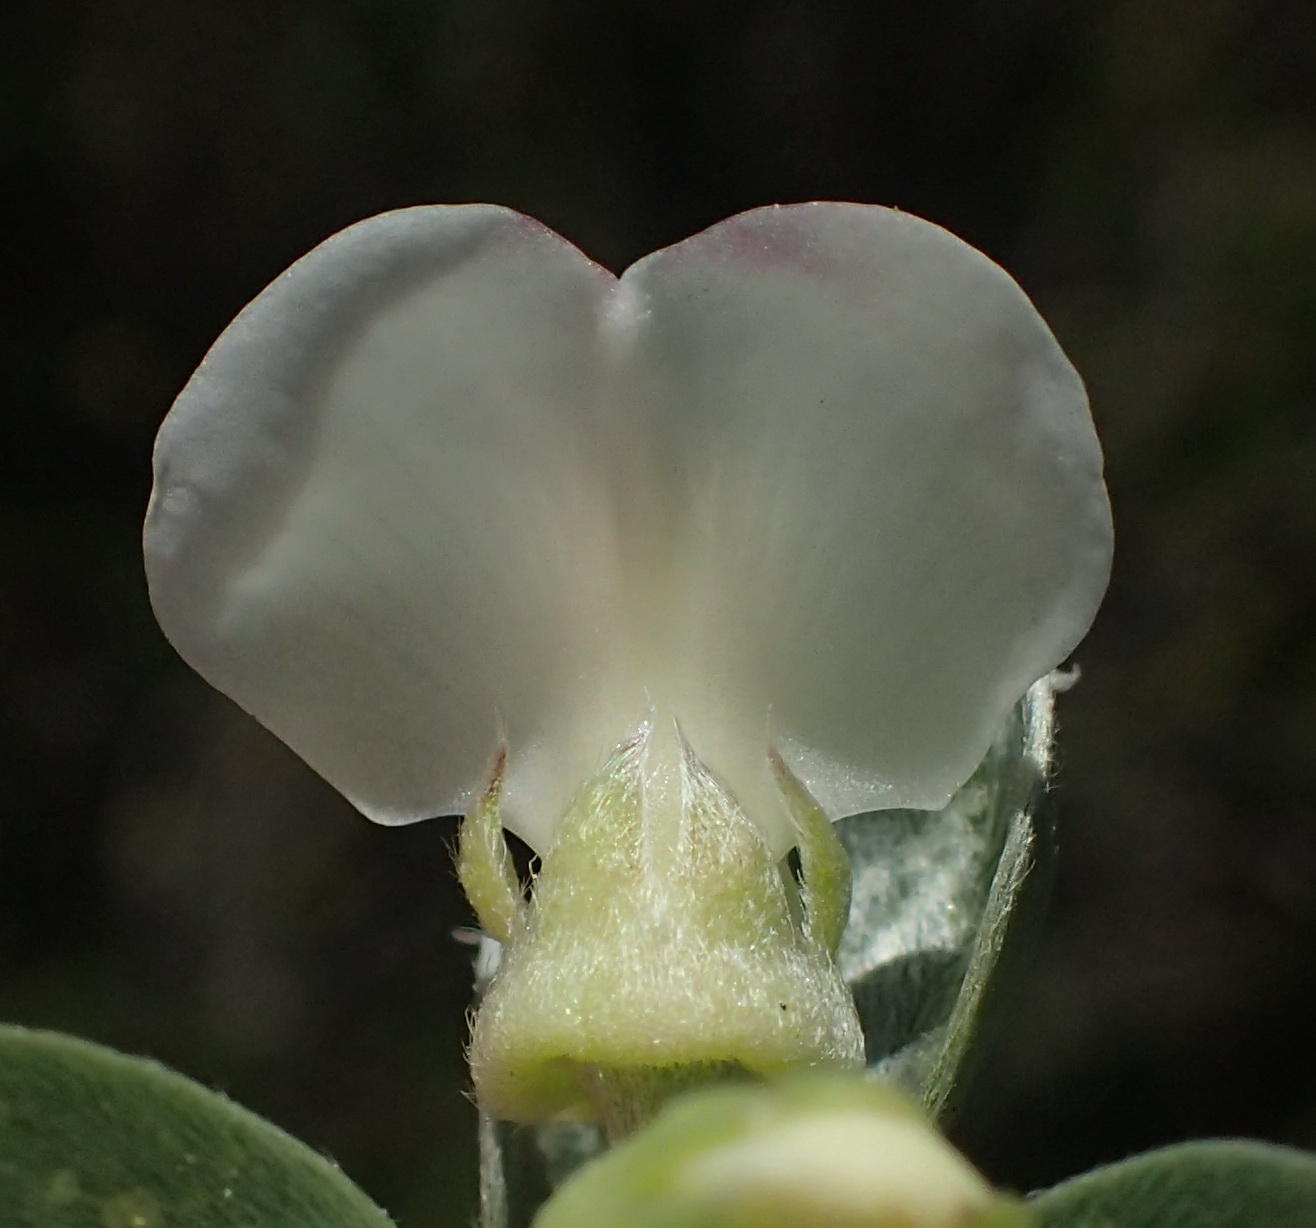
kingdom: Plantae
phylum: Tracheophyta
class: Magnoliopsida
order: Fabales
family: Fabaceae
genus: Podalyria
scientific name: Podalyria myrtillifolia
